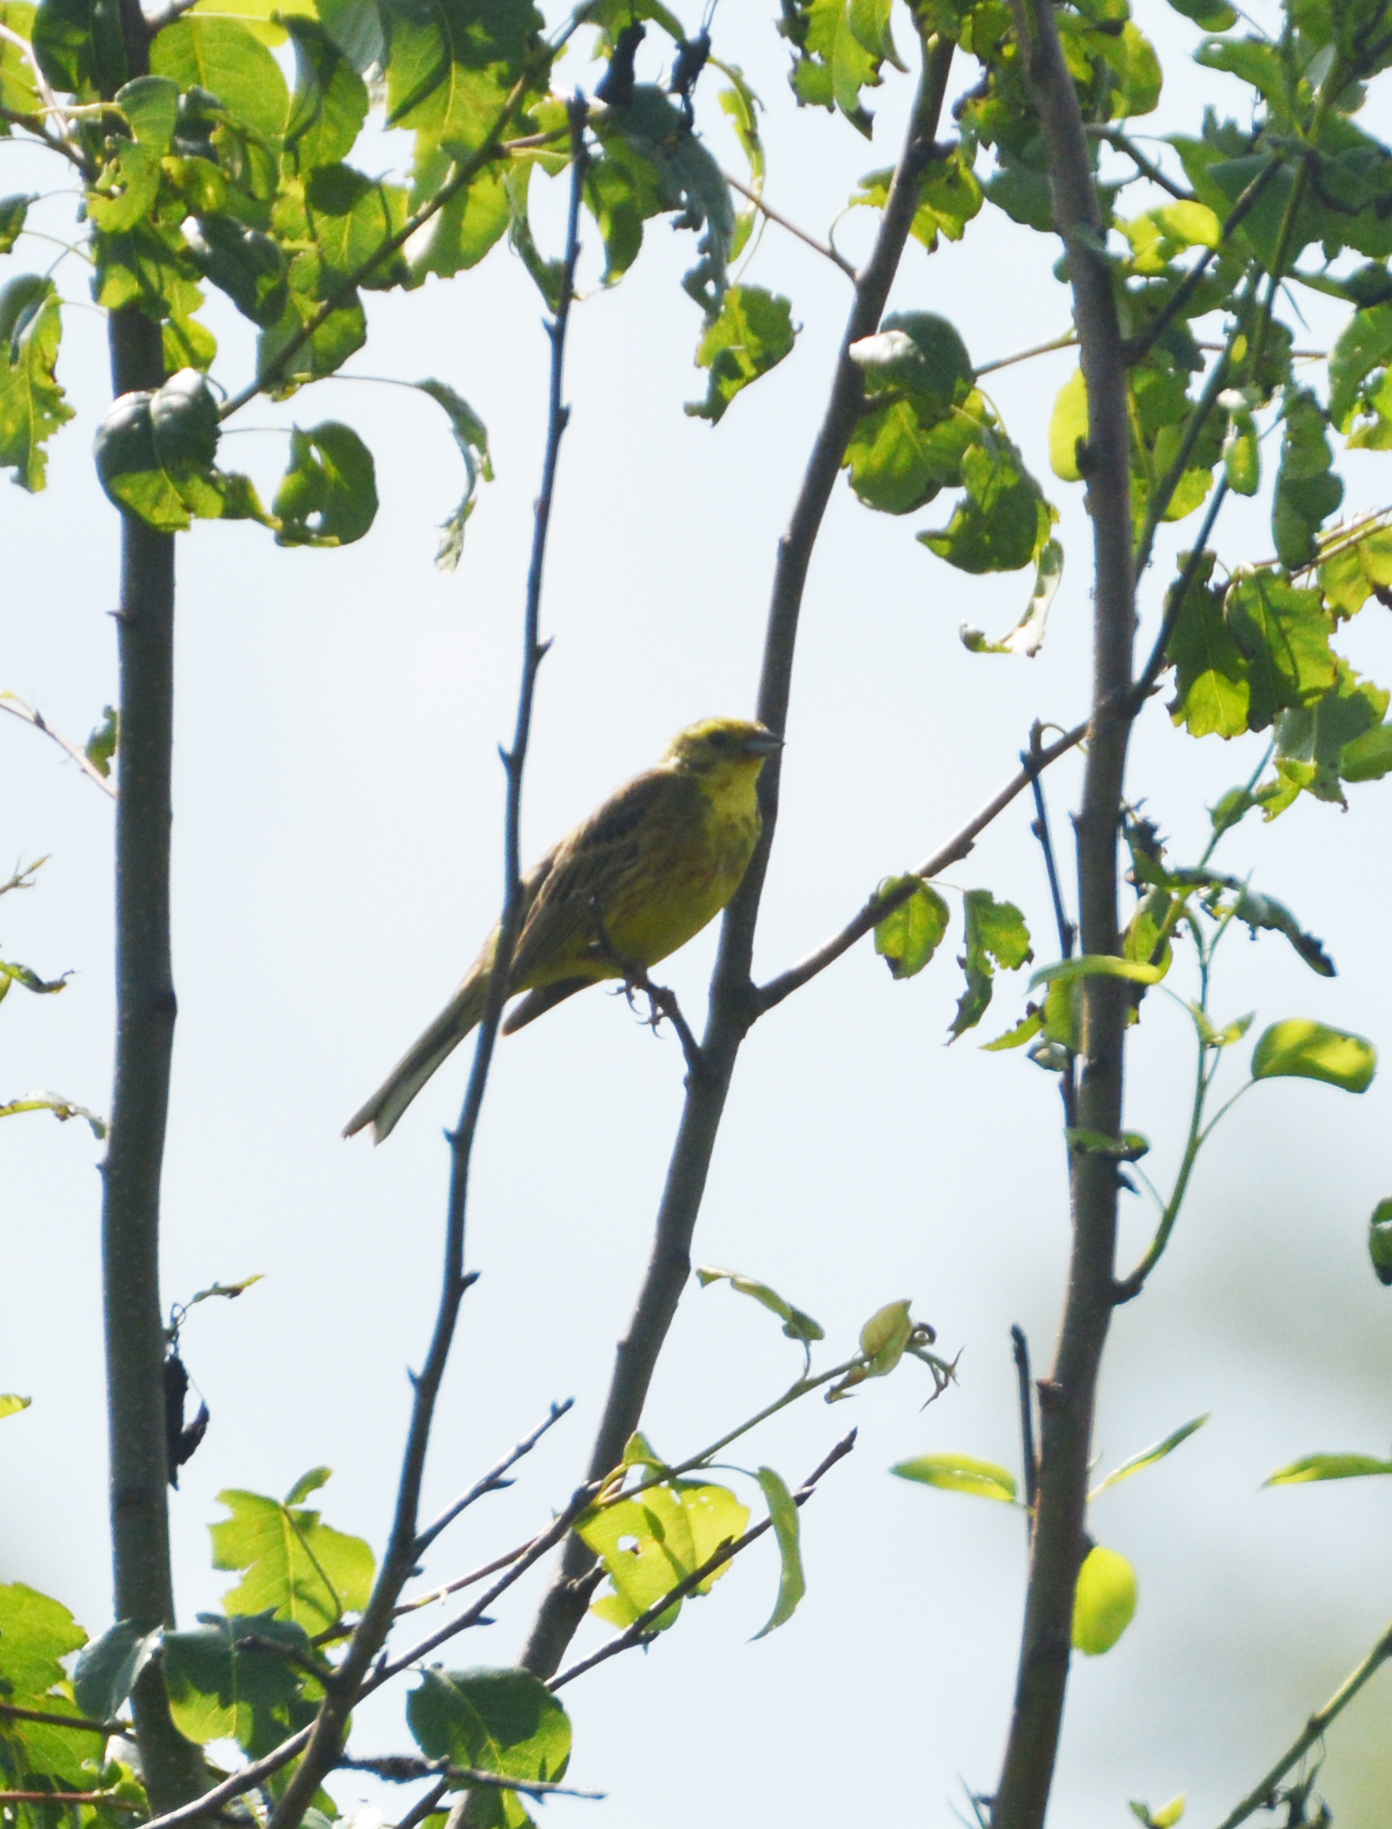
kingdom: Animalia
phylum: Chordata
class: Aves
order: Passeriformes
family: Emberizidae
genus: Emberiza
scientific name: Emberiza citrinella
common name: Yellowhammer
